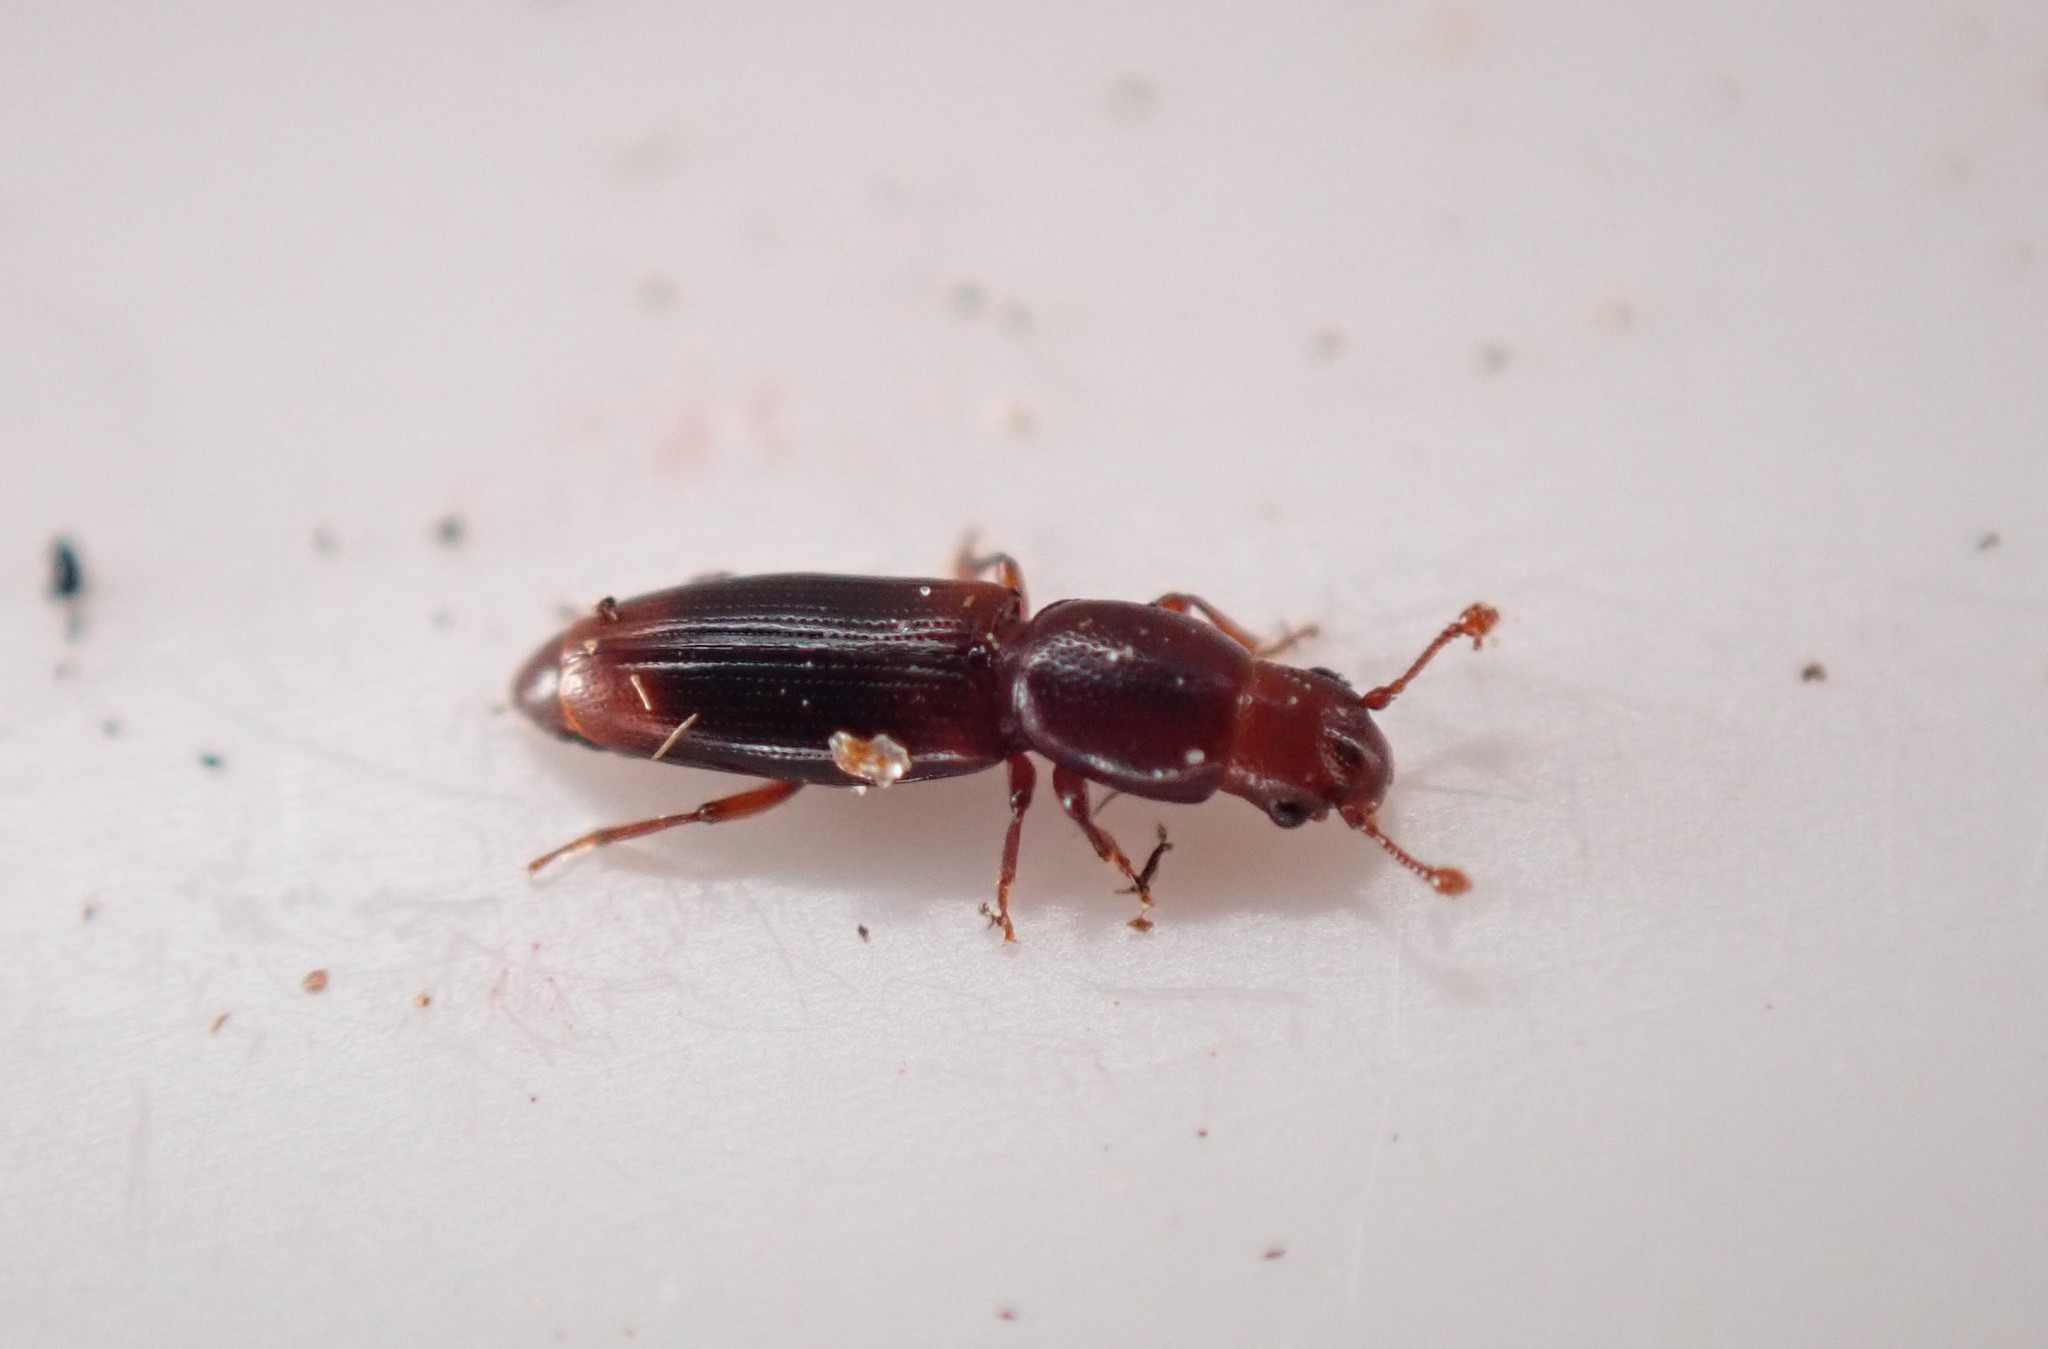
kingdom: Animalia
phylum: Arthropoda
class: Insecta
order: Coleoptera
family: Monotomidae
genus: Rhizophagus
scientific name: Rhizophagus dispar
